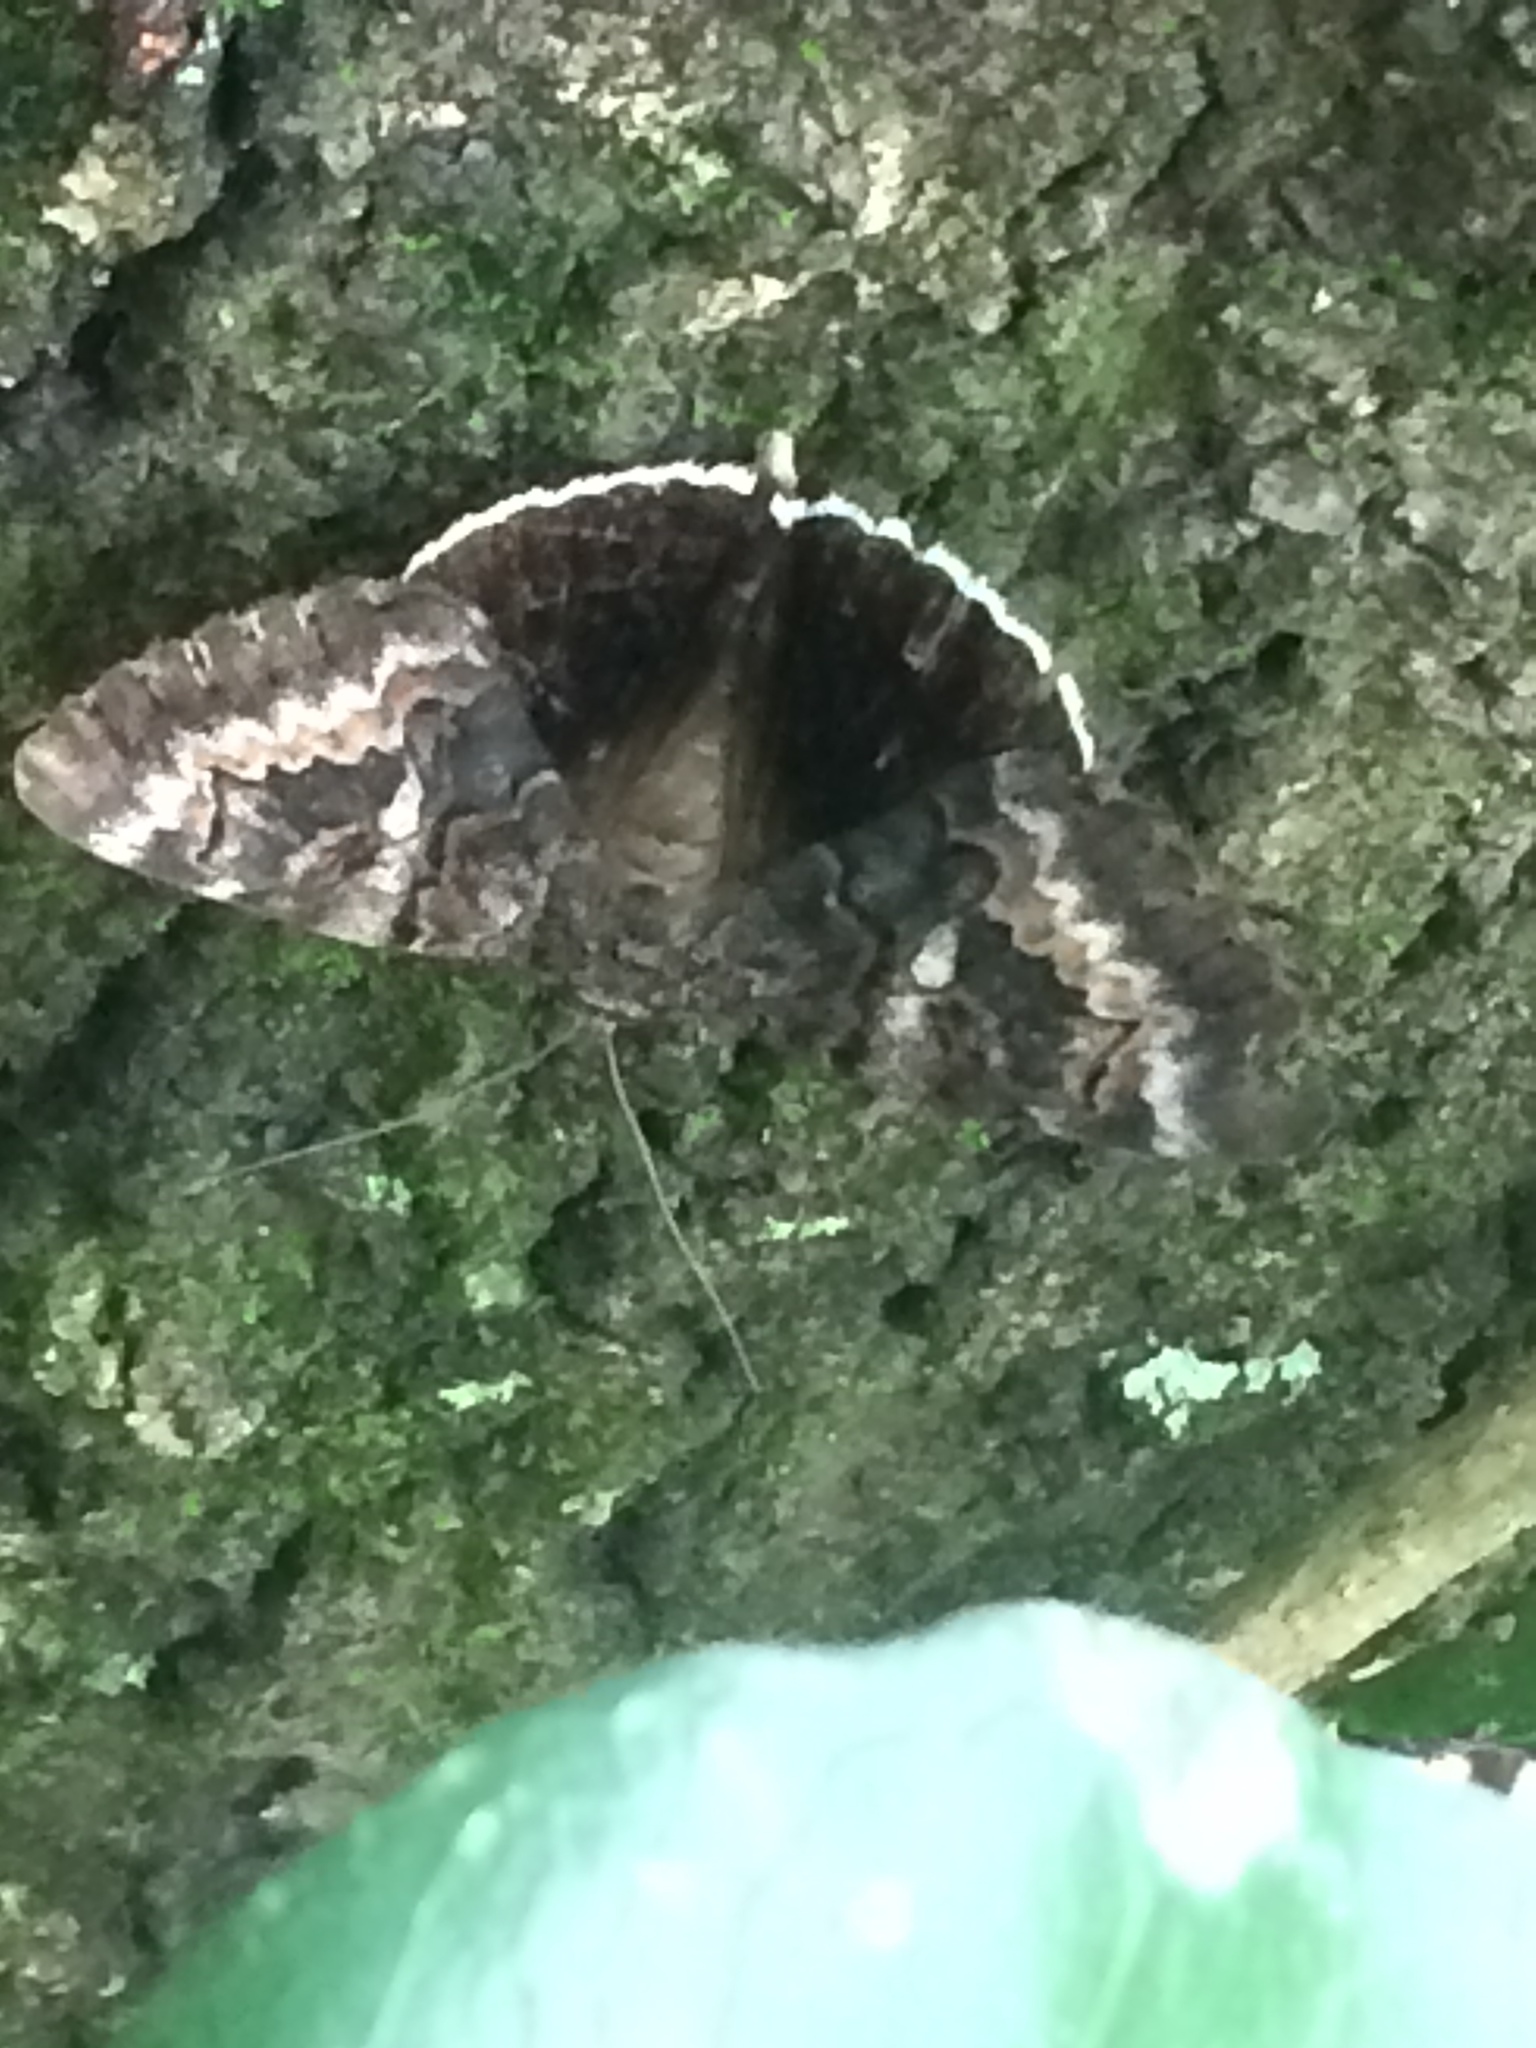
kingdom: Animalia
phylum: Arthropoda
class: Insecta
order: Lepidoptera
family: Erebidae
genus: Catocala
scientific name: Catocala epione
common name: Epione underwing
